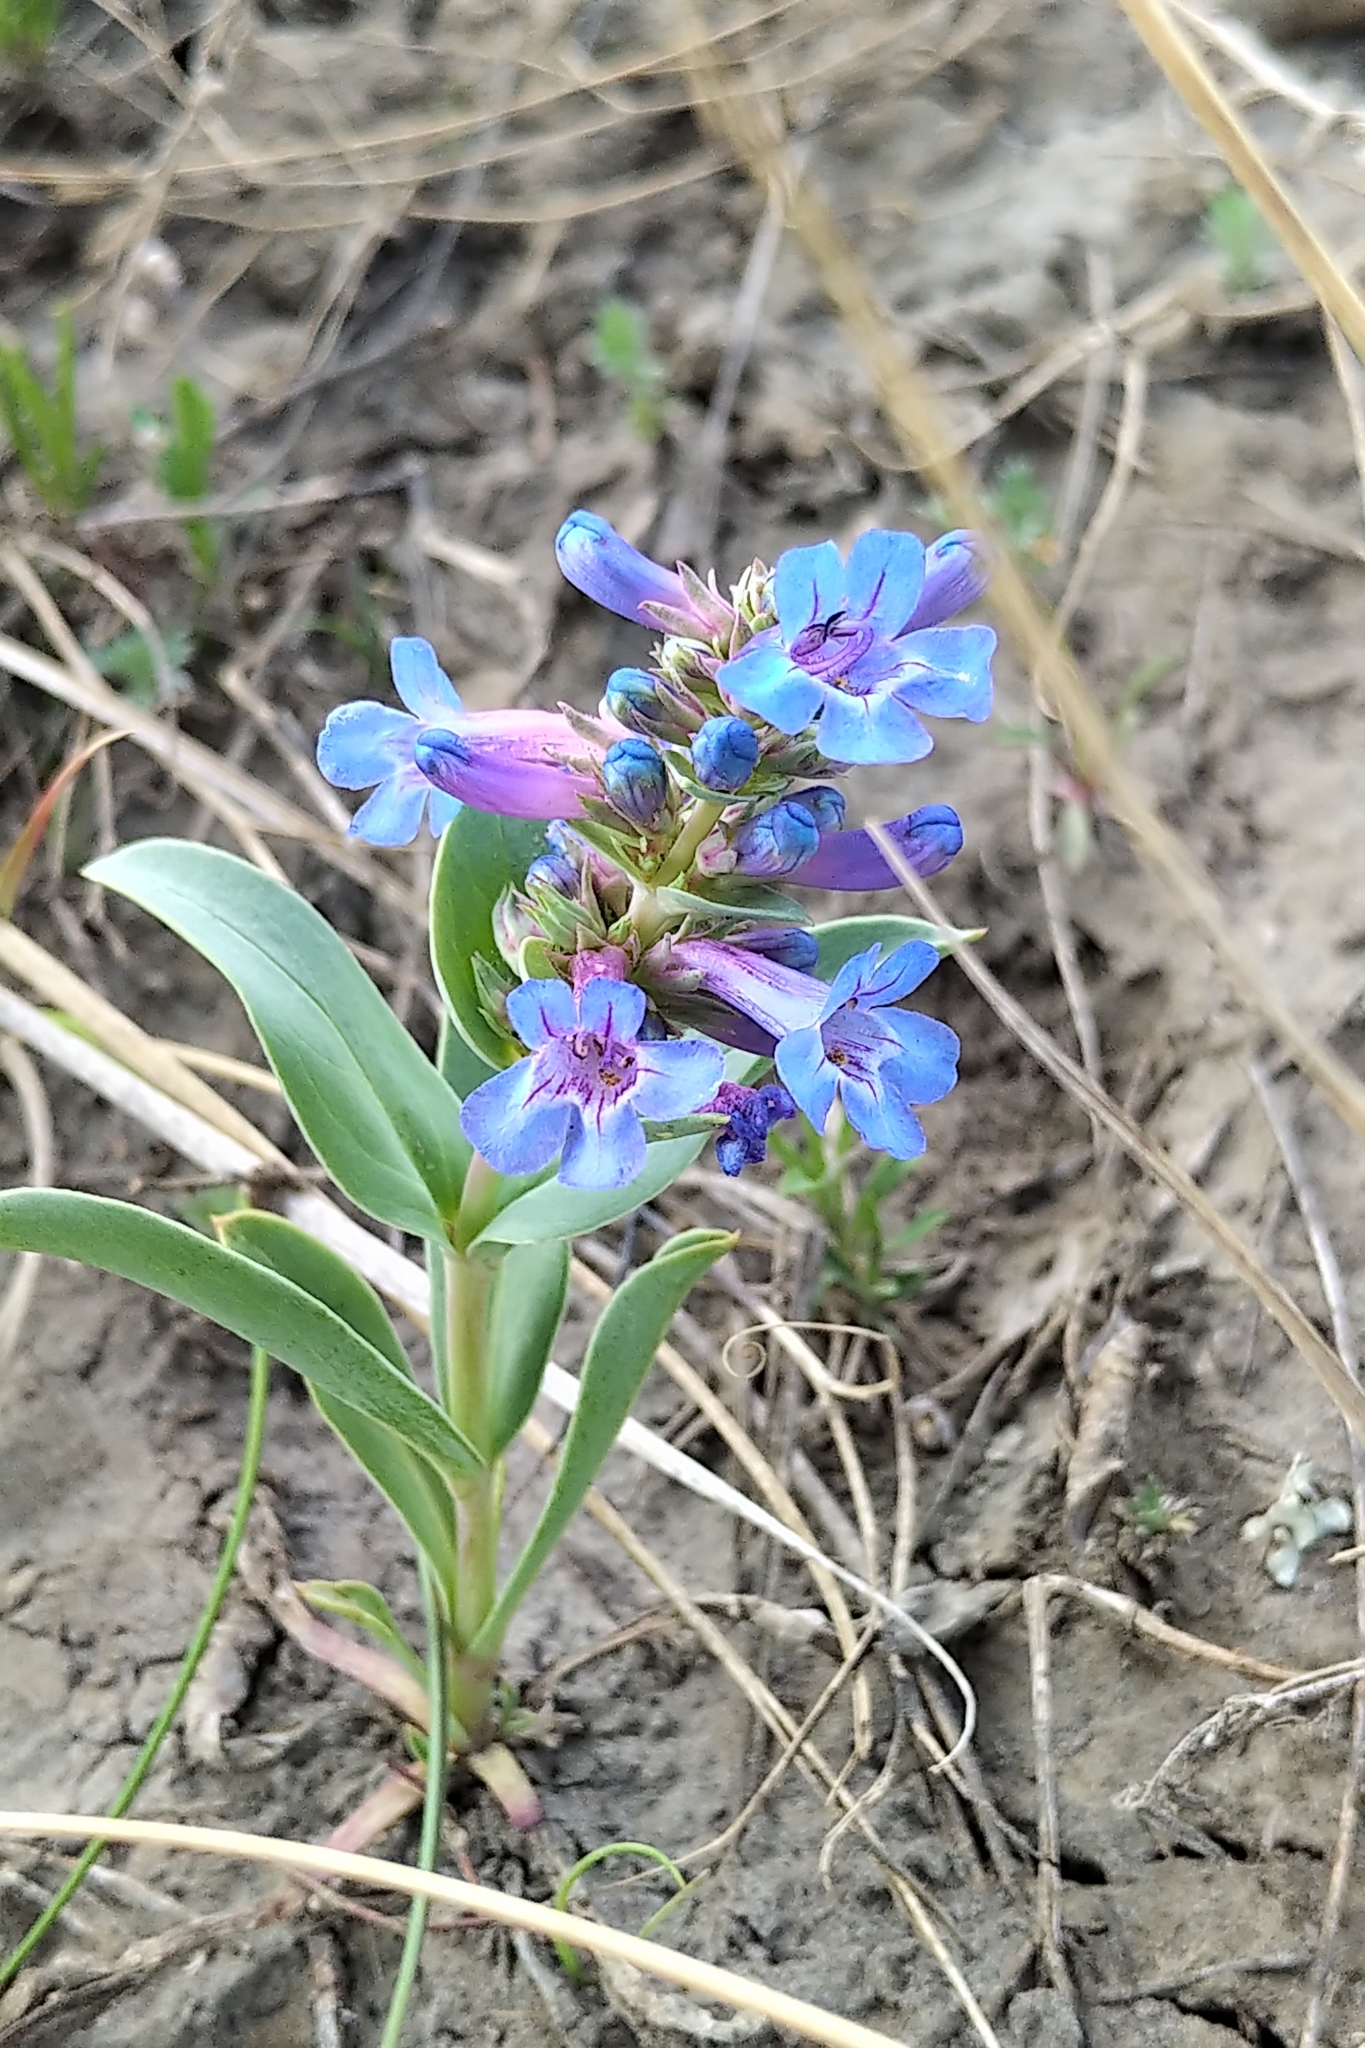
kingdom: Plantae
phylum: Tracheophyta
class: Magnoliopsida
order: Lamiales
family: Plantaginaceae
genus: Penstemon
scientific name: Penstemon nitidus
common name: Shining penstemon
